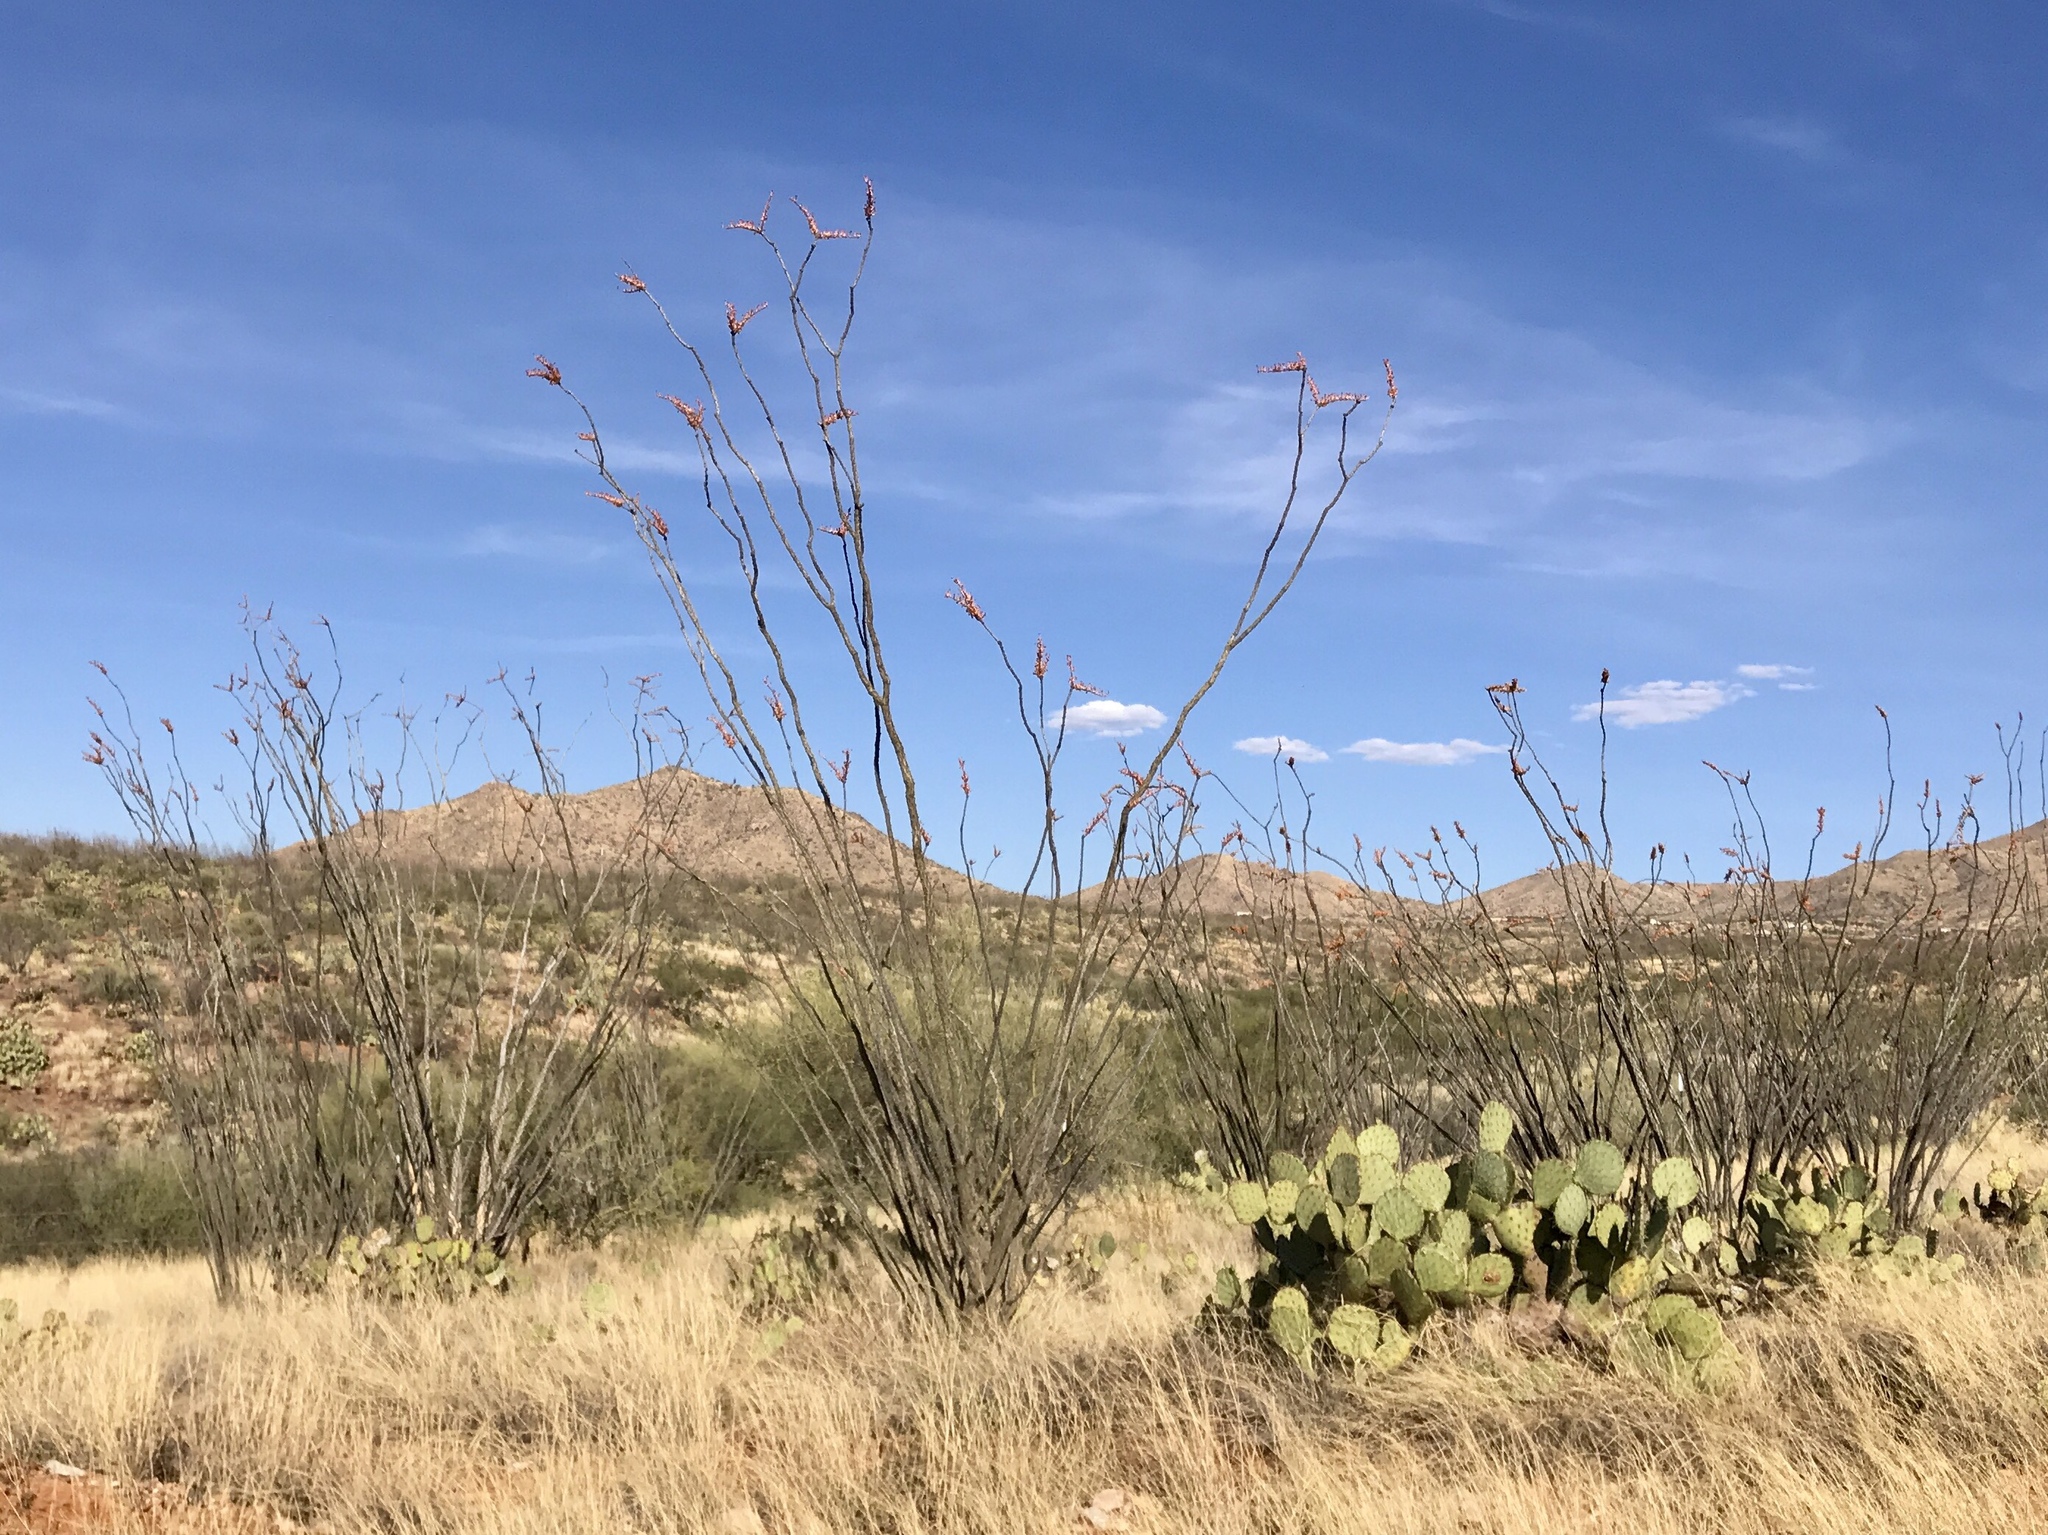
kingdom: Plantae
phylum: Tracheophyta
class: Magnoliopsida
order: Ericales
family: Fouquieriaceae
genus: Fouquieria
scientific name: Fouquieria splendens
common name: Vine-cactus
